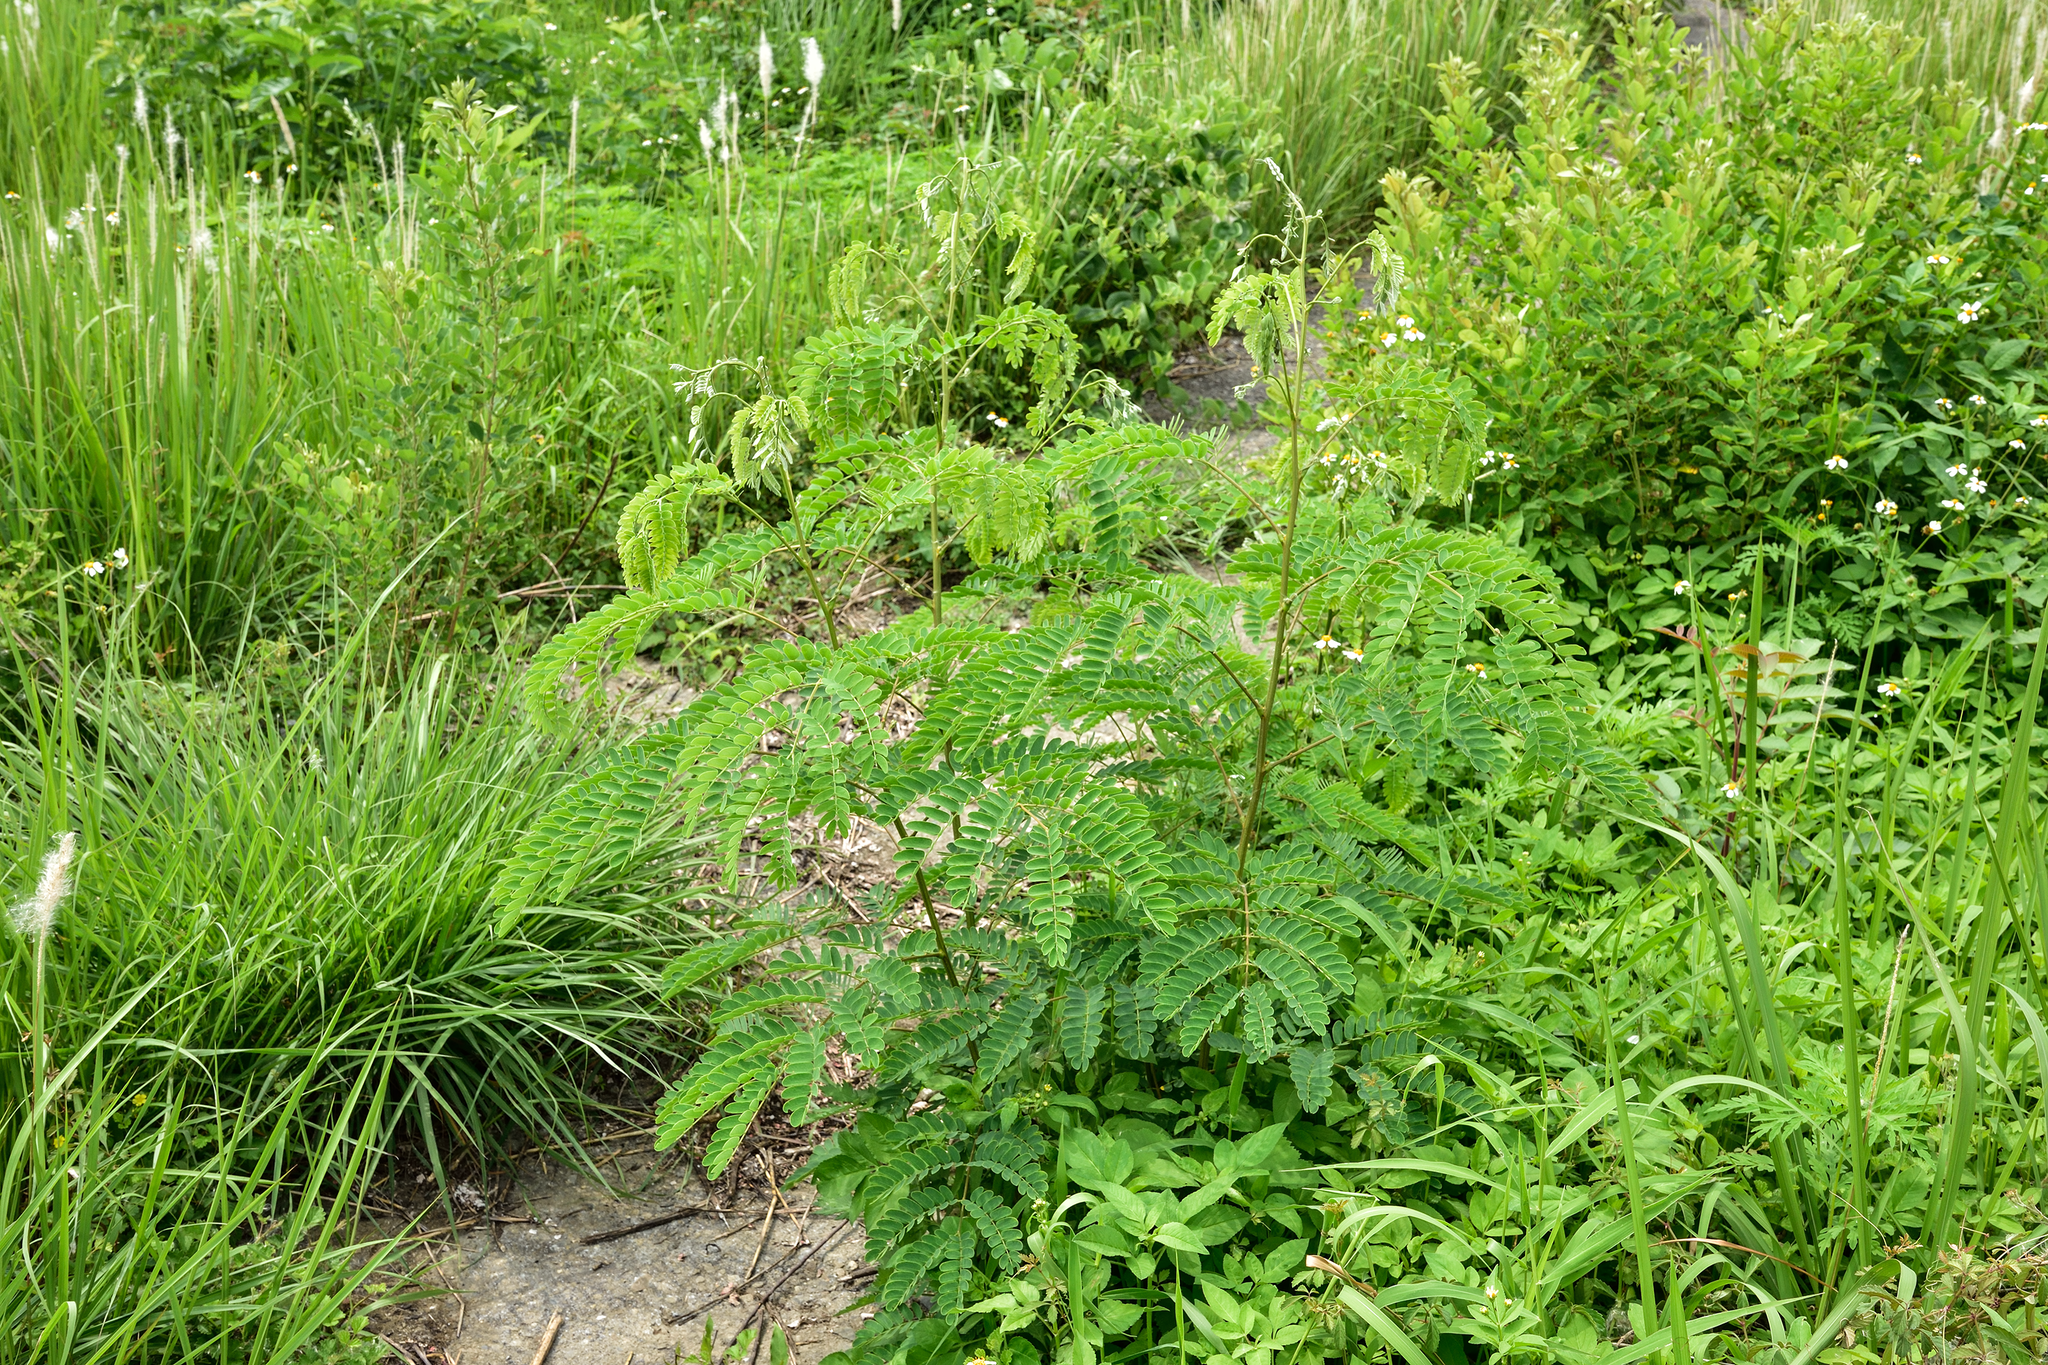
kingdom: Plantae
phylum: Tracheophyta
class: Magnoliopsida
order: Fabales
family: Fabaceae
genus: Albizia
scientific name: Albizia kalkora
